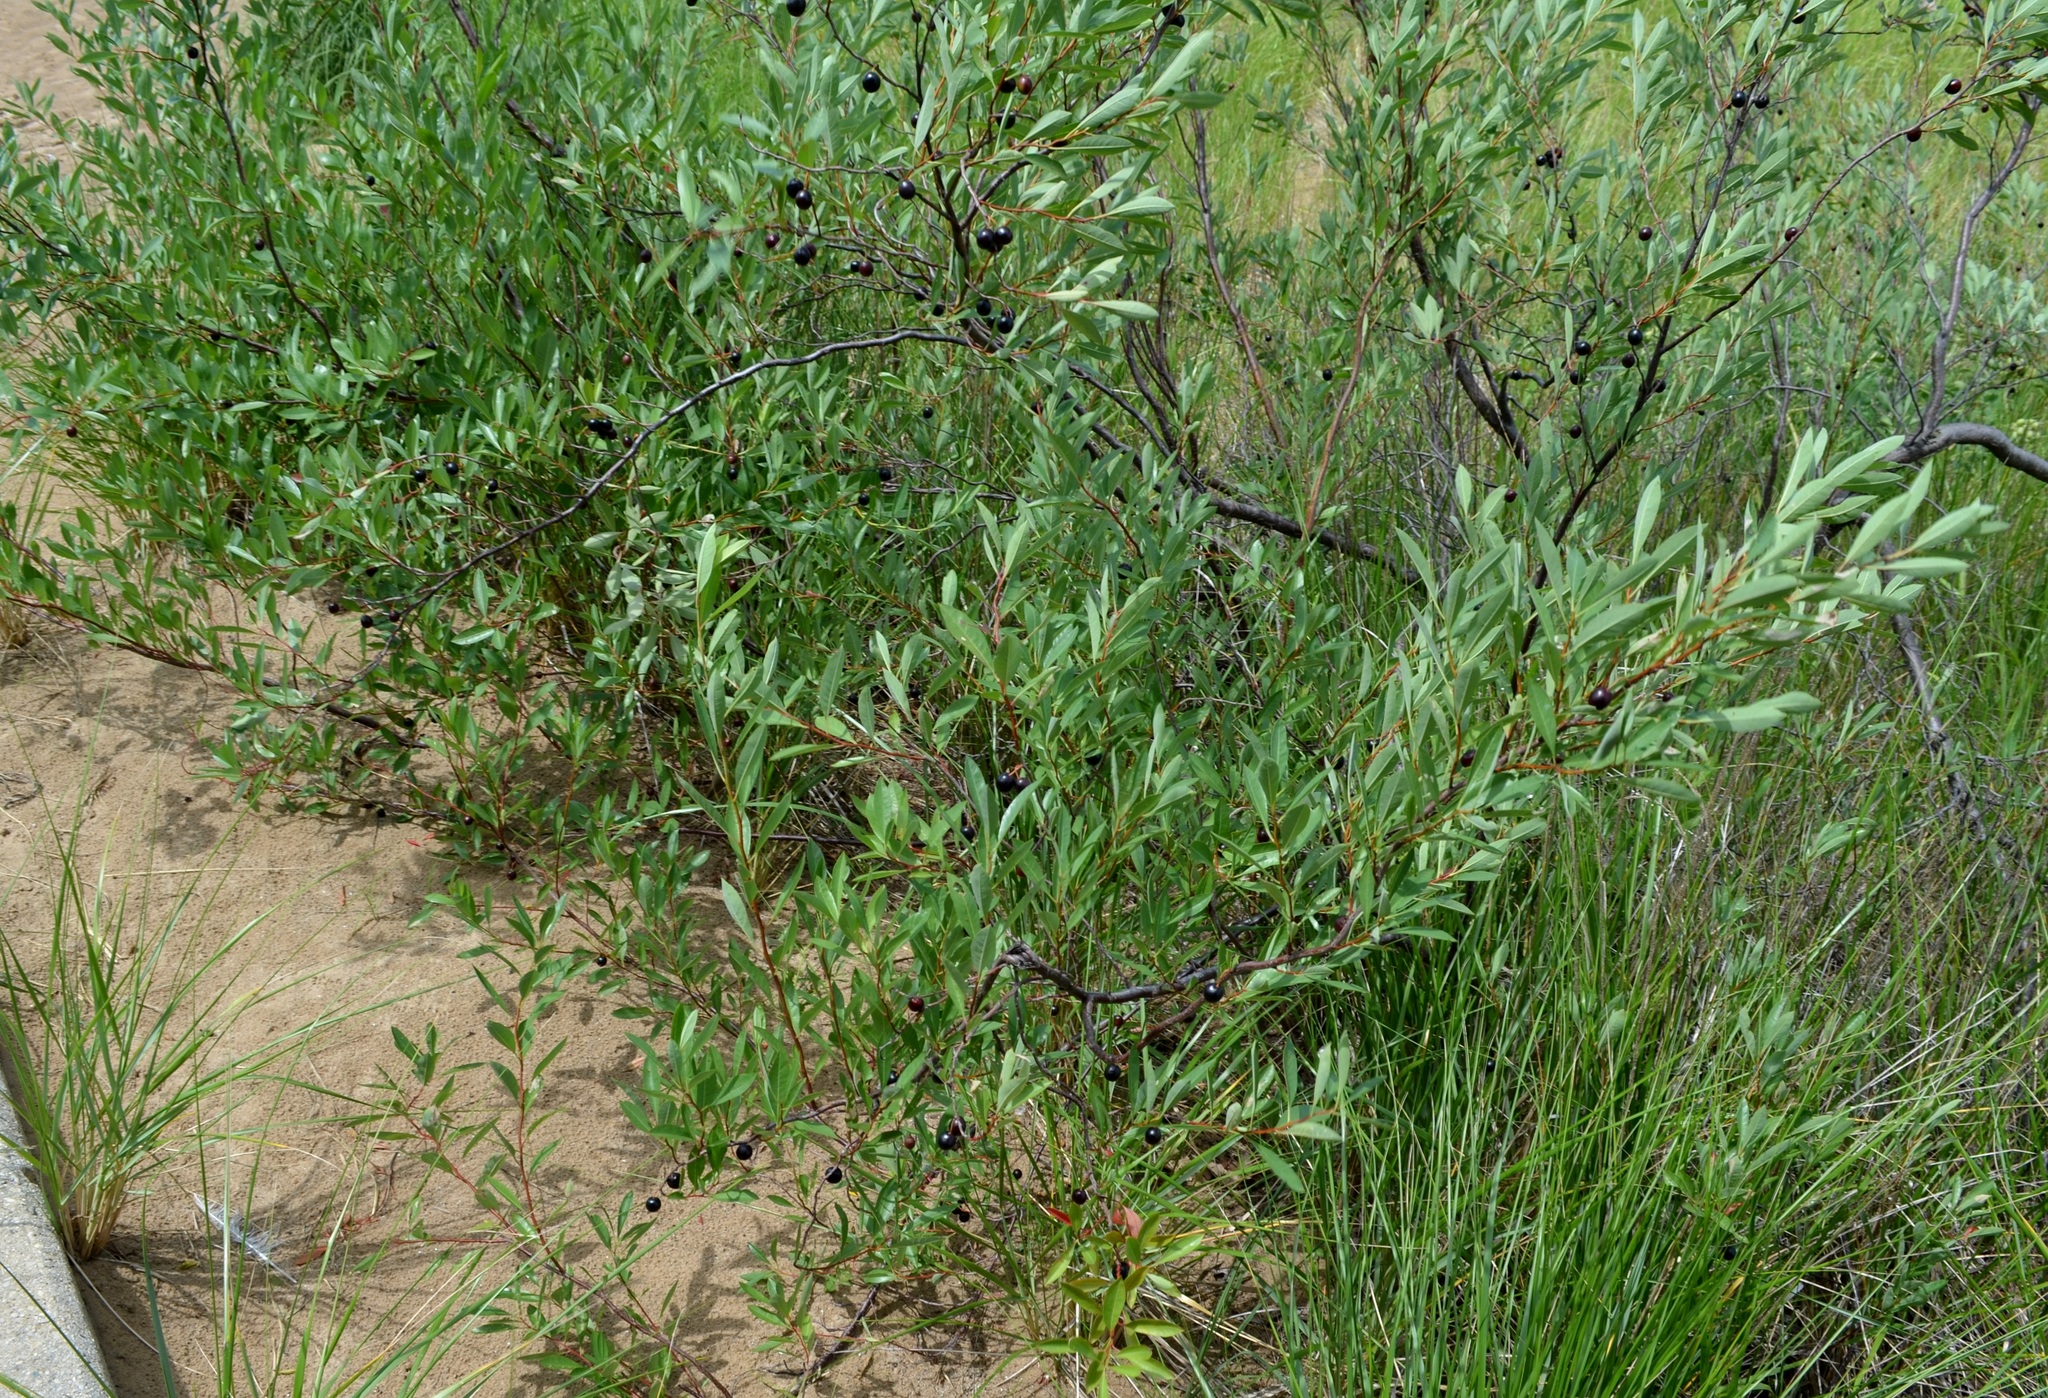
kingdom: Plantae
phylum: Tracheophyta
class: Magnoliopsida
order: Rosales
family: Rosaceae
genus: Prunus
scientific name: Prunus pumila
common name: Dwarf cherry
